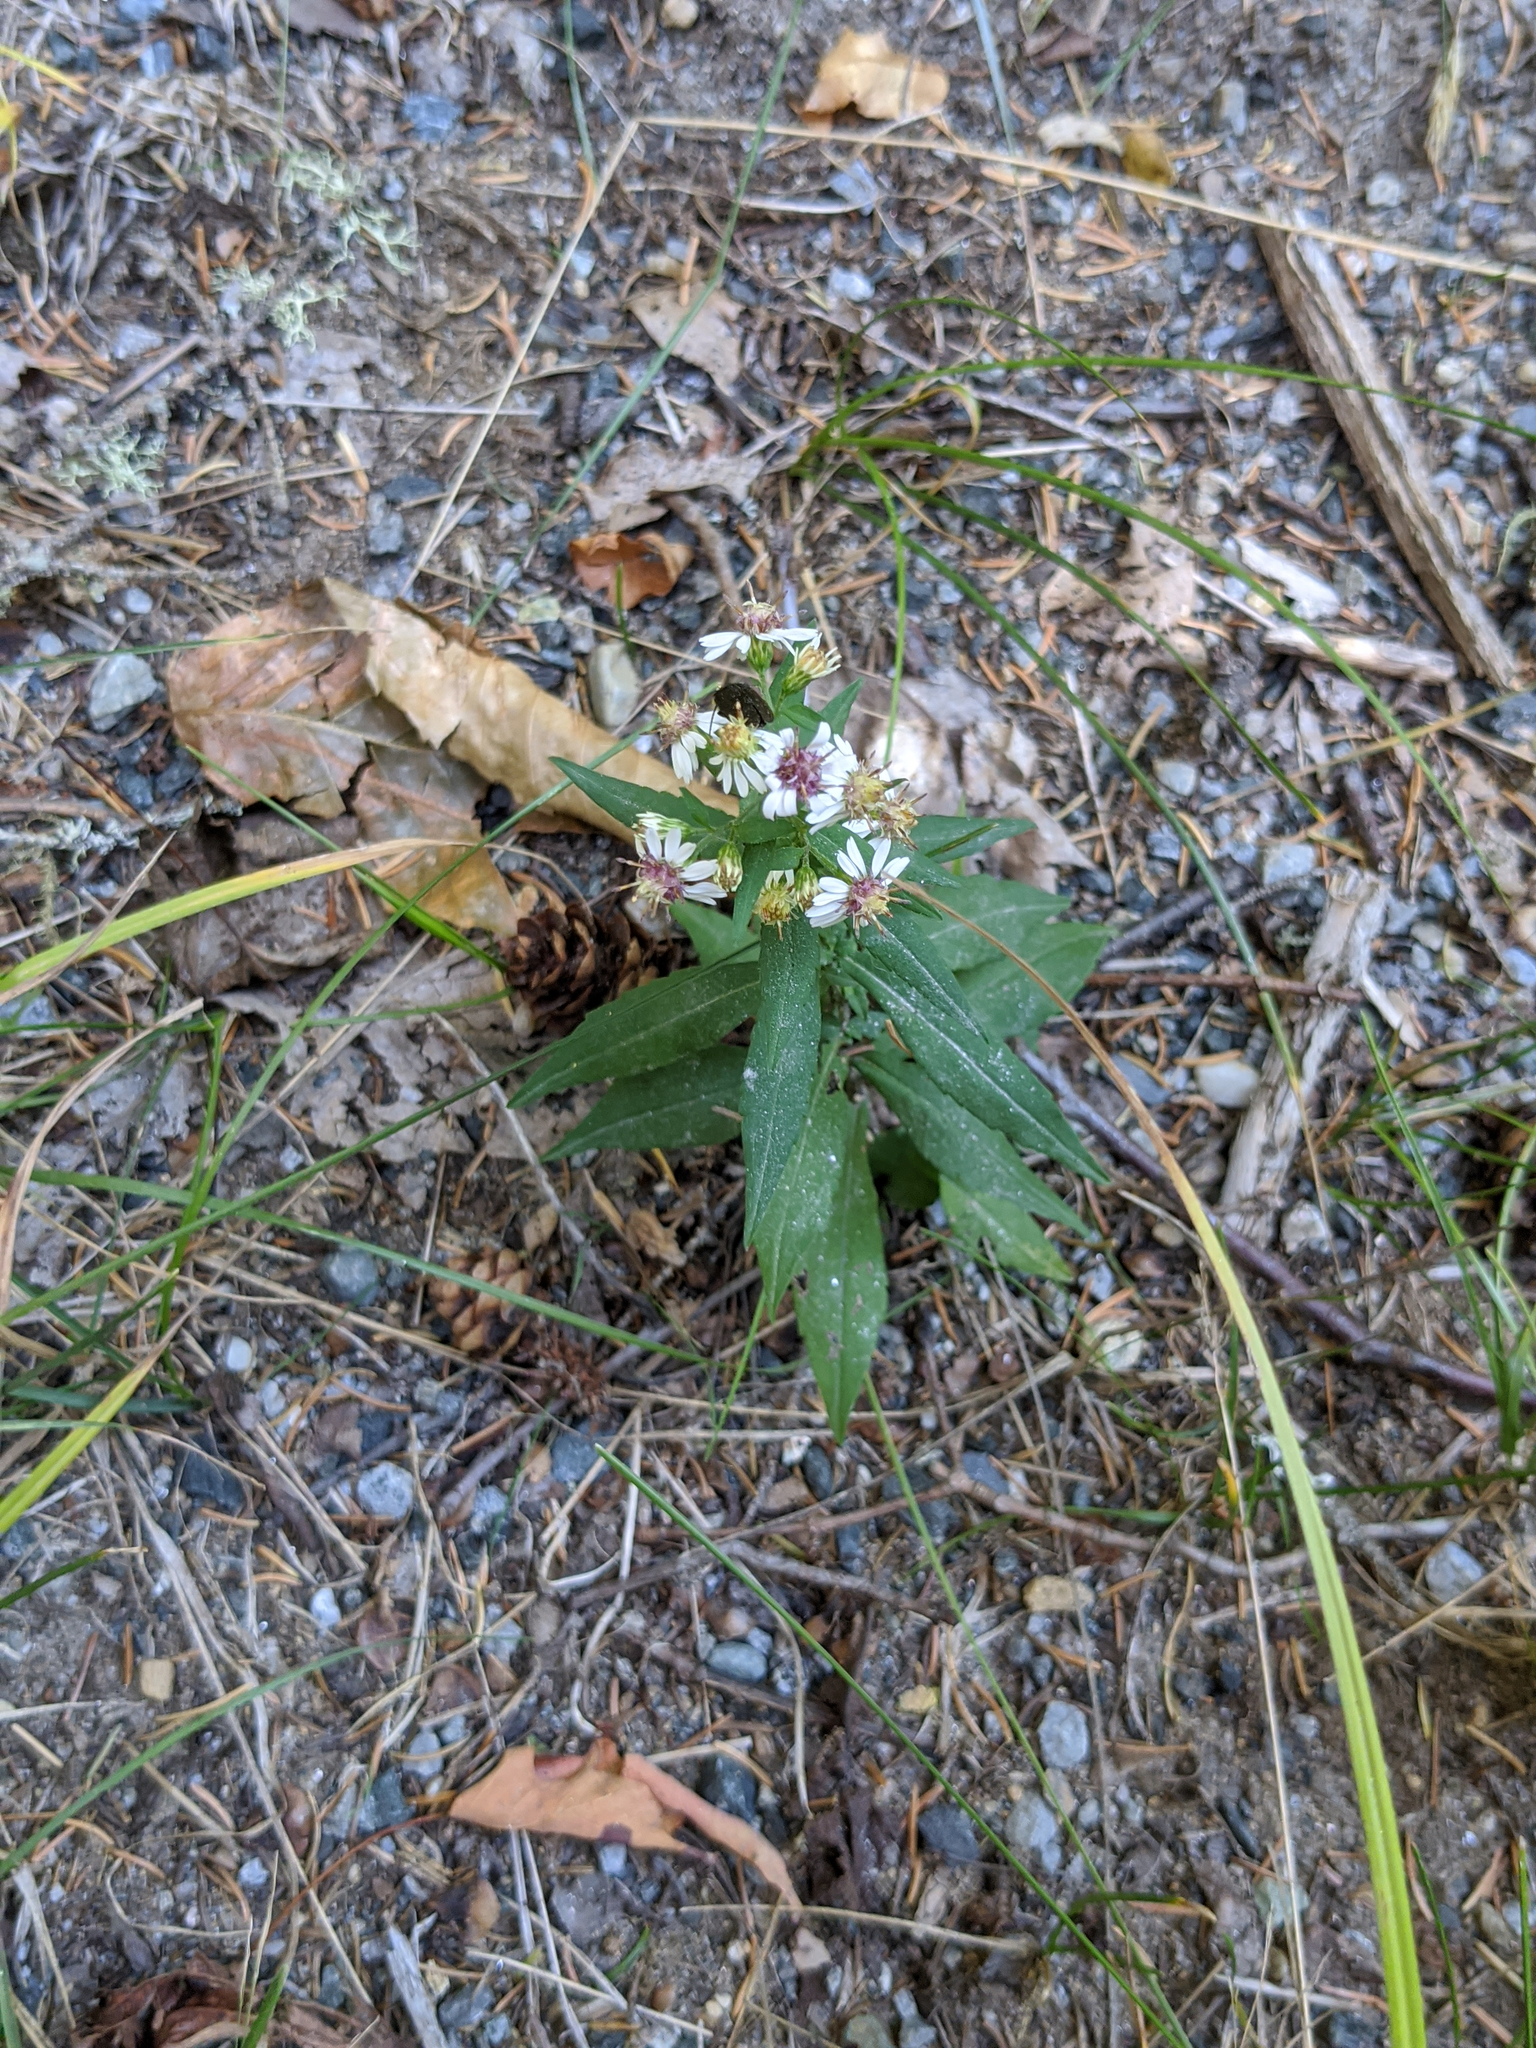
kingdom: Plantae
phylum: Tracheophyta
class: Magnoliopsida
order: Asterales
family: Asteraceae
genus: Symphyotrichum
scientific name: Symphyotrichum lateriflorum
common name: Calico aster
